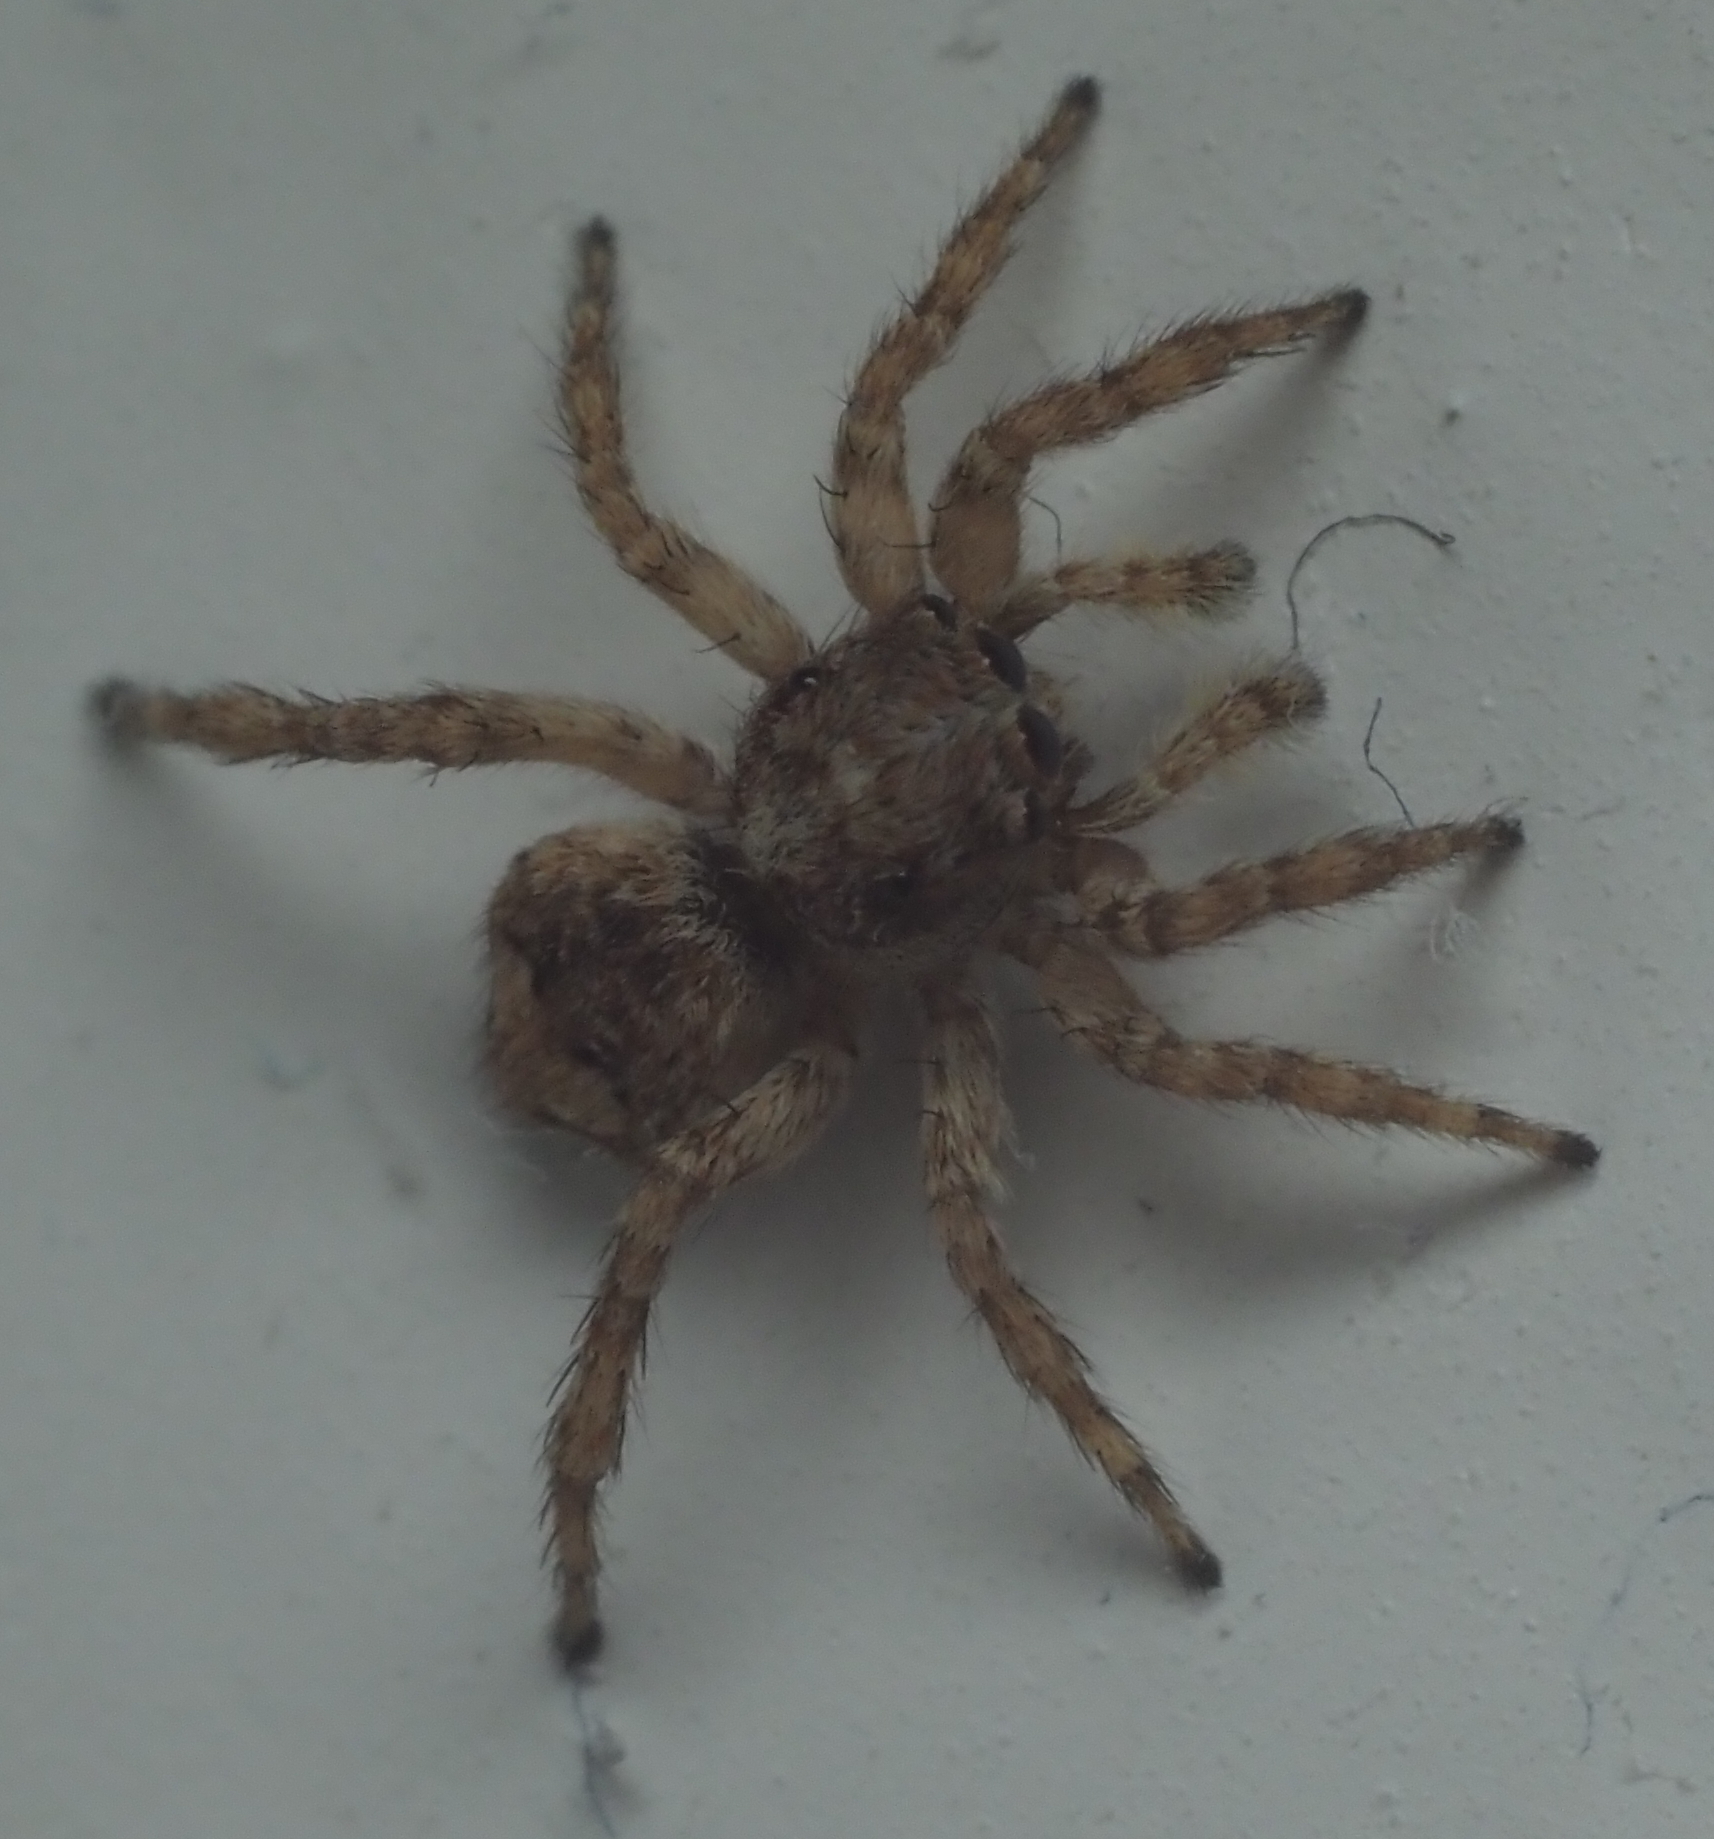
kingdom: Animalia
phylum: Arthropoda
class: Arachnida
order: Araneae
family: Salticidae
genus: Attulus
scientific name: Attulus fasciger
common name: Asiatic wall jumping spider
